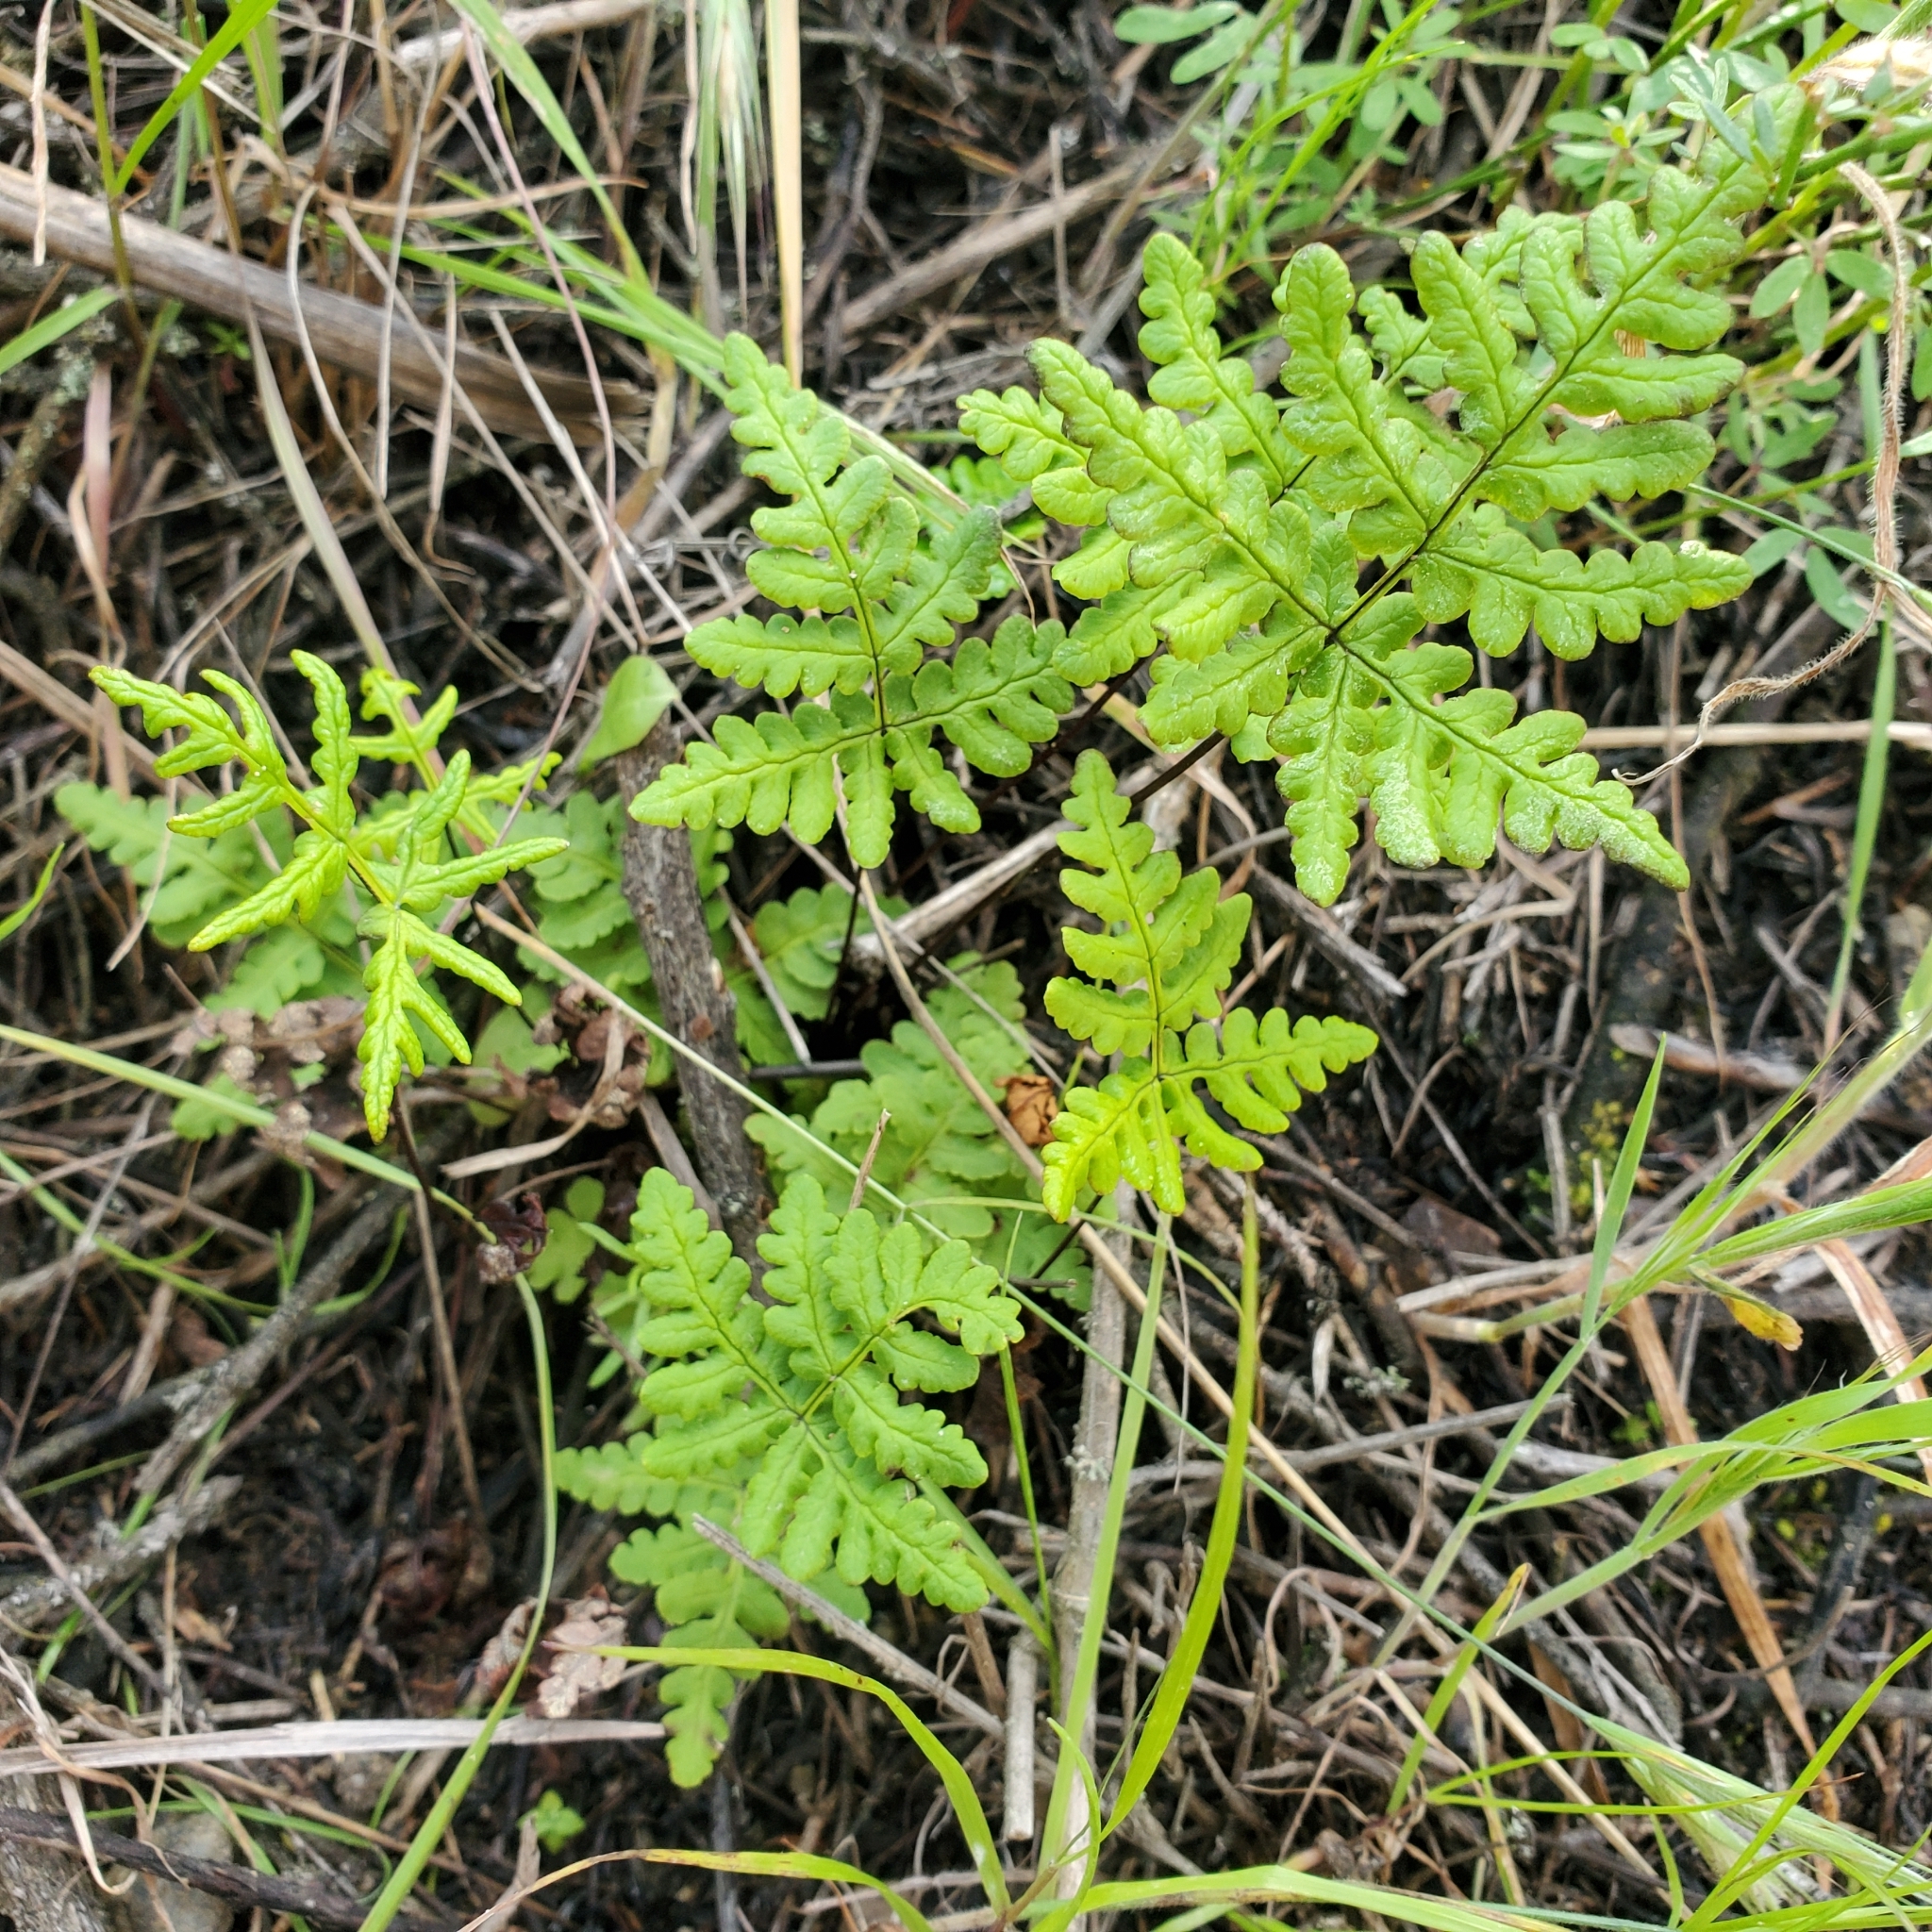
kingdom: Plantae
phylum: Tracheophyta
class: Polypodiopsida
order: Polypodiales
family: Pteridaceae
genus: Pentagramma
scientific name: Pentagramma triangularis
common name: Gold fern
